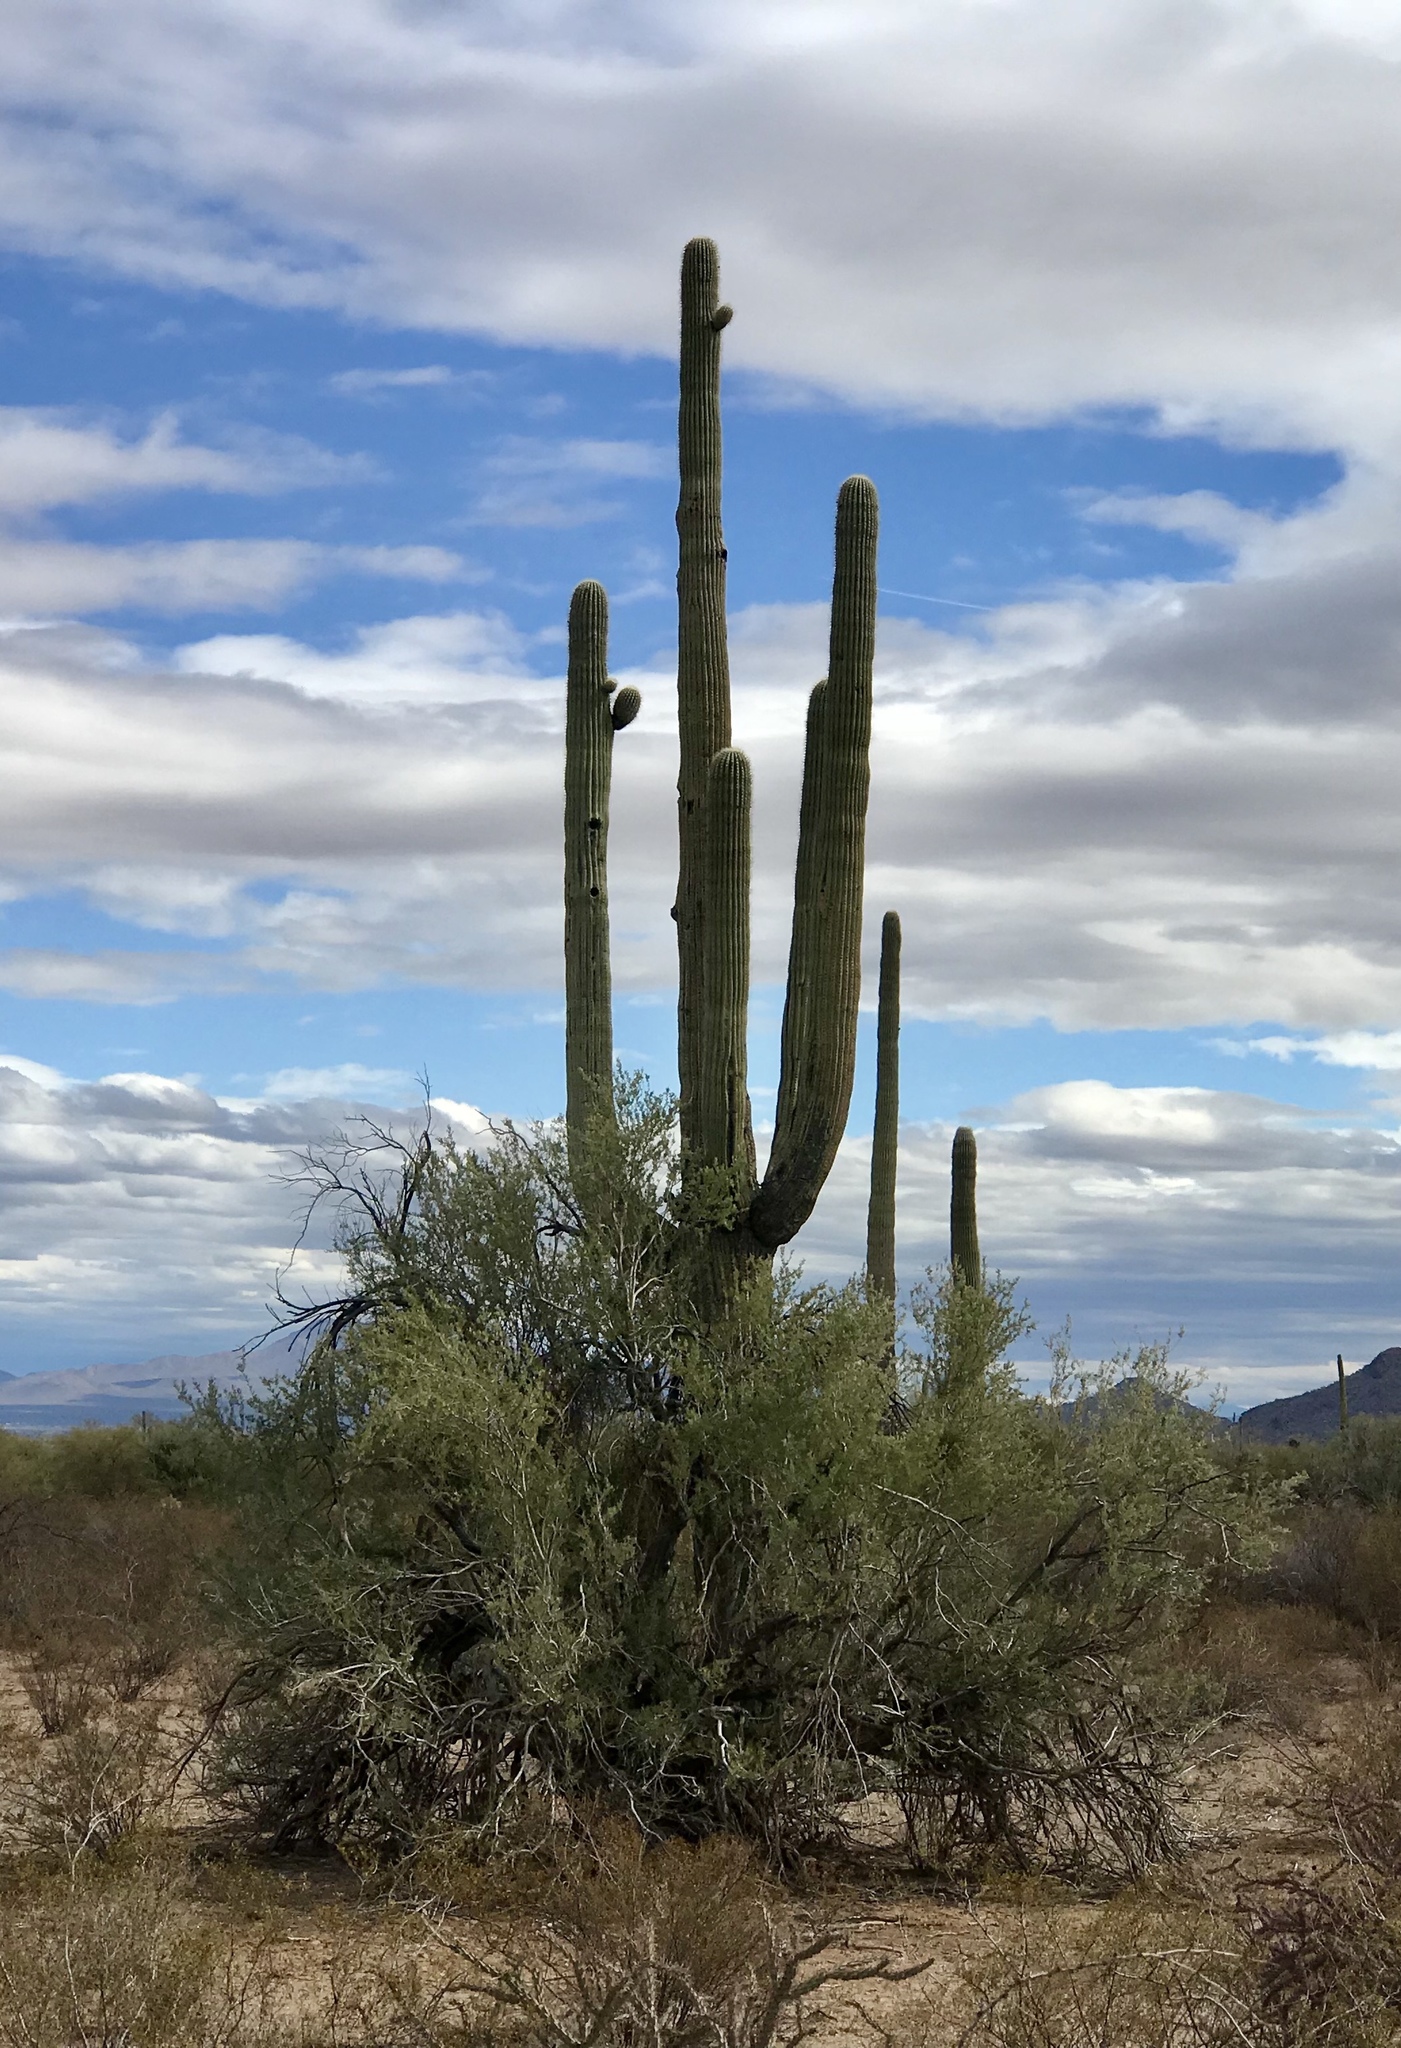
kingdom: Plantae
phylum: Tracheophyta
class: Magnoliopsida
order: Caryophyllales
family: Cactaceae
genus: Carnegiea
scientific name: Carnegiea gigantea
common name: Saguaro
